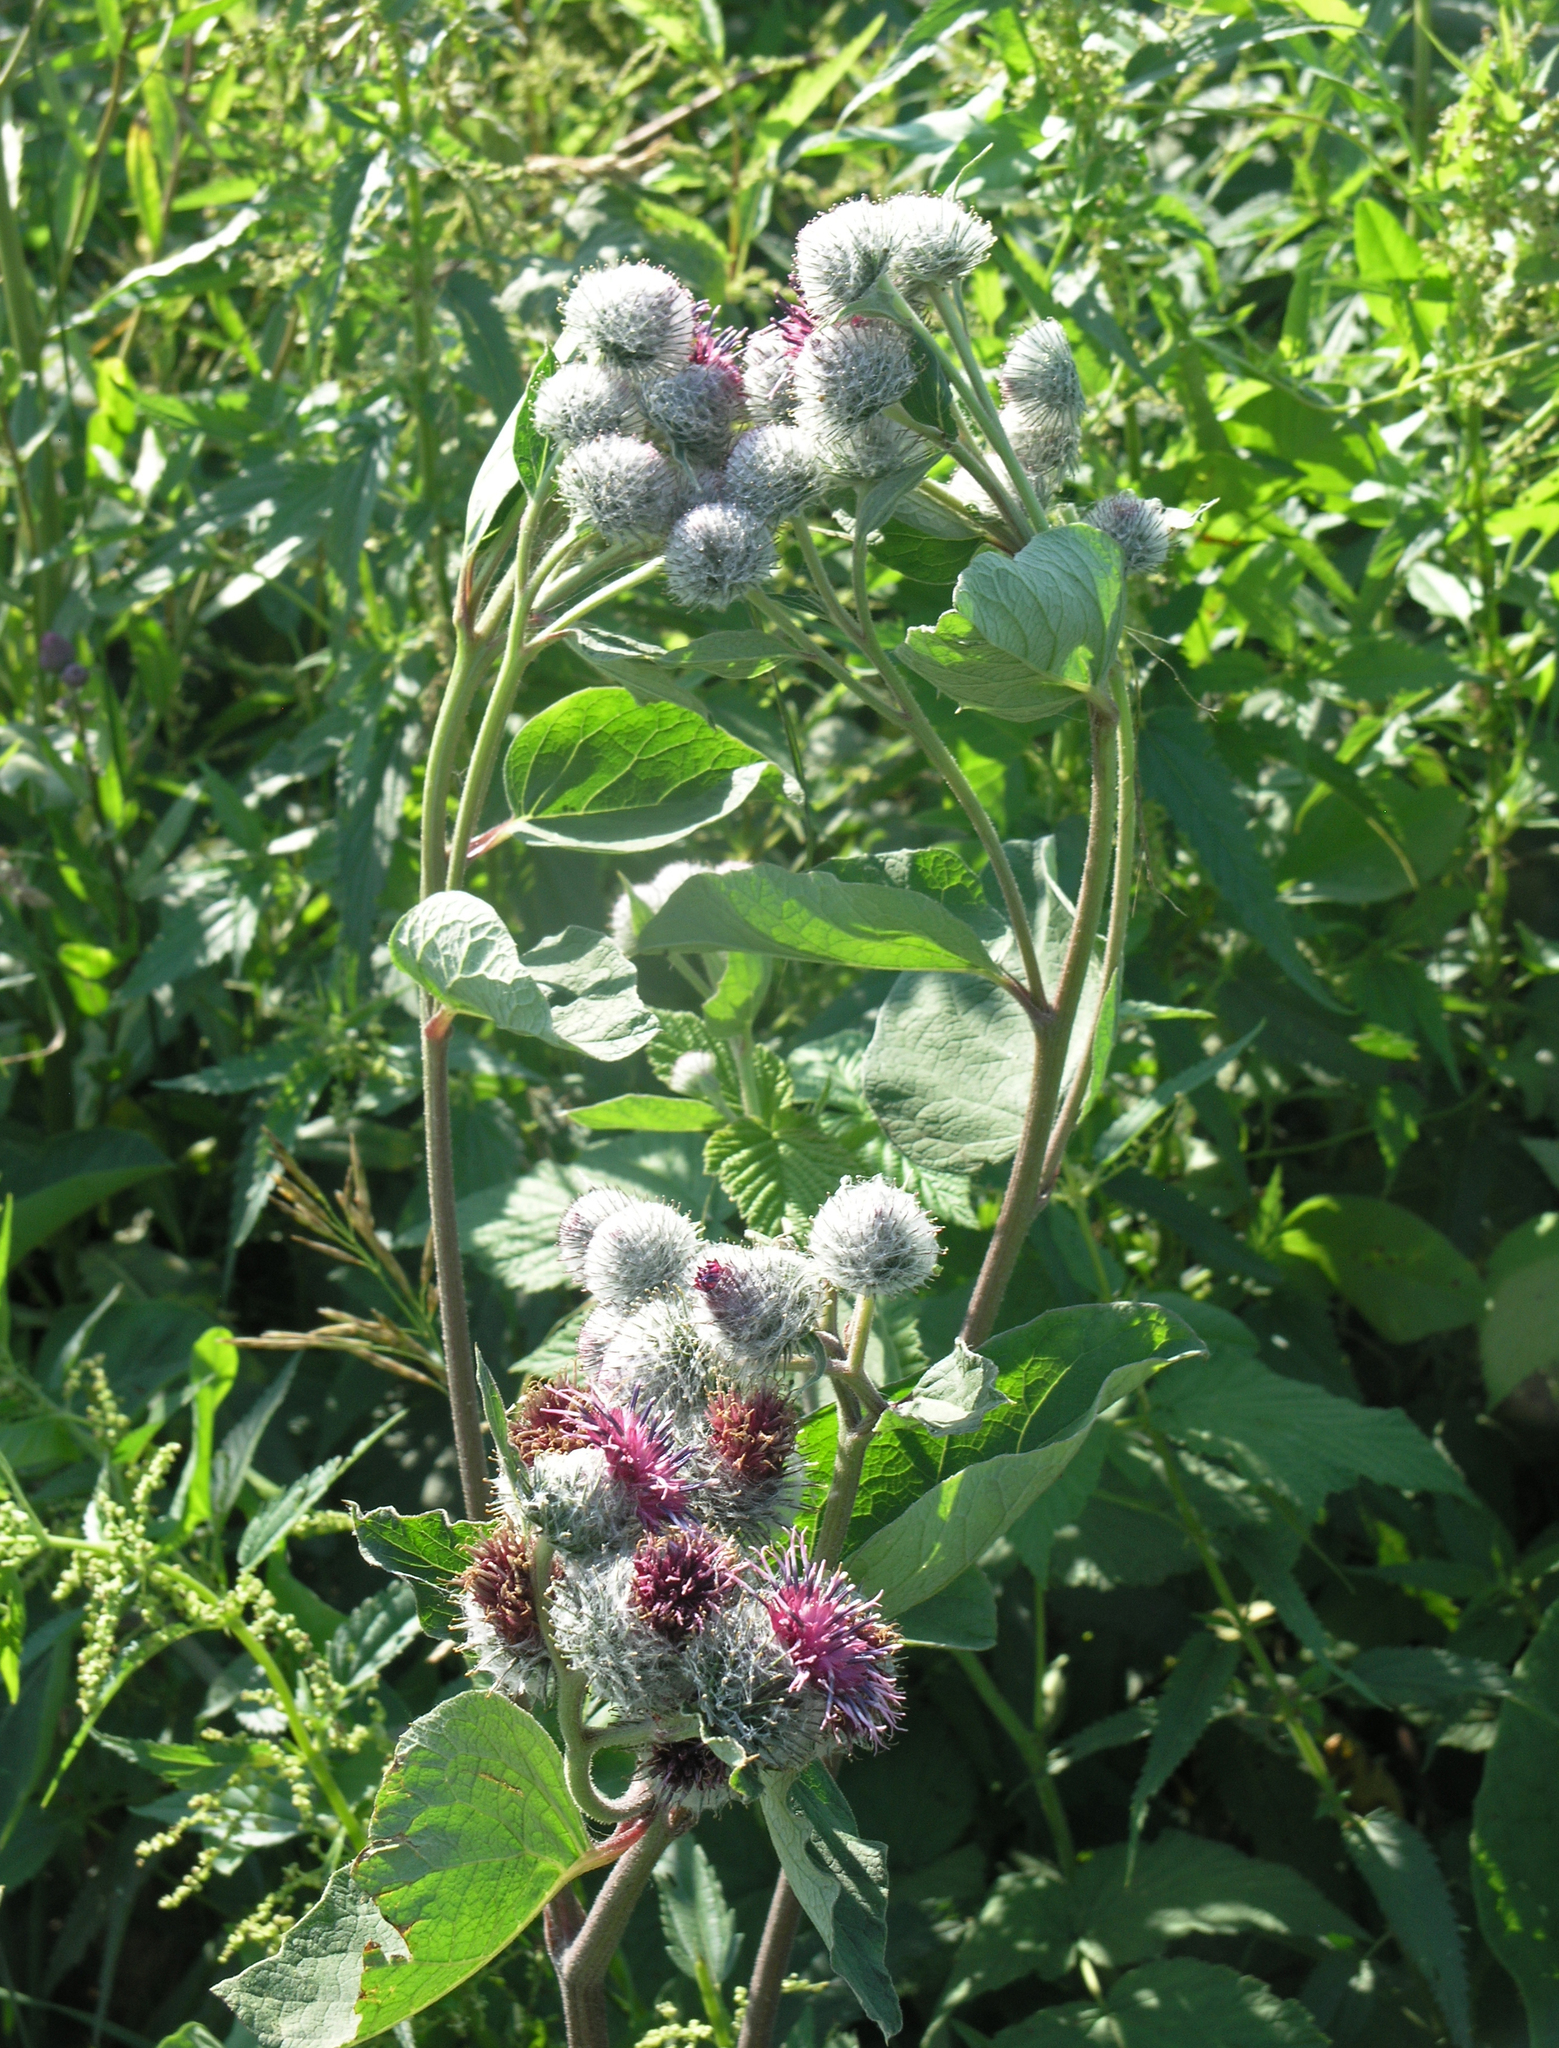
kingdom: Plantae
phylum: Tracheophyta
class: Magnoliopsida
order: Asterales
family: Asteraceae
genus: Arctium
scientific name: Arctium tomentosum
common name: Woolly burdock
